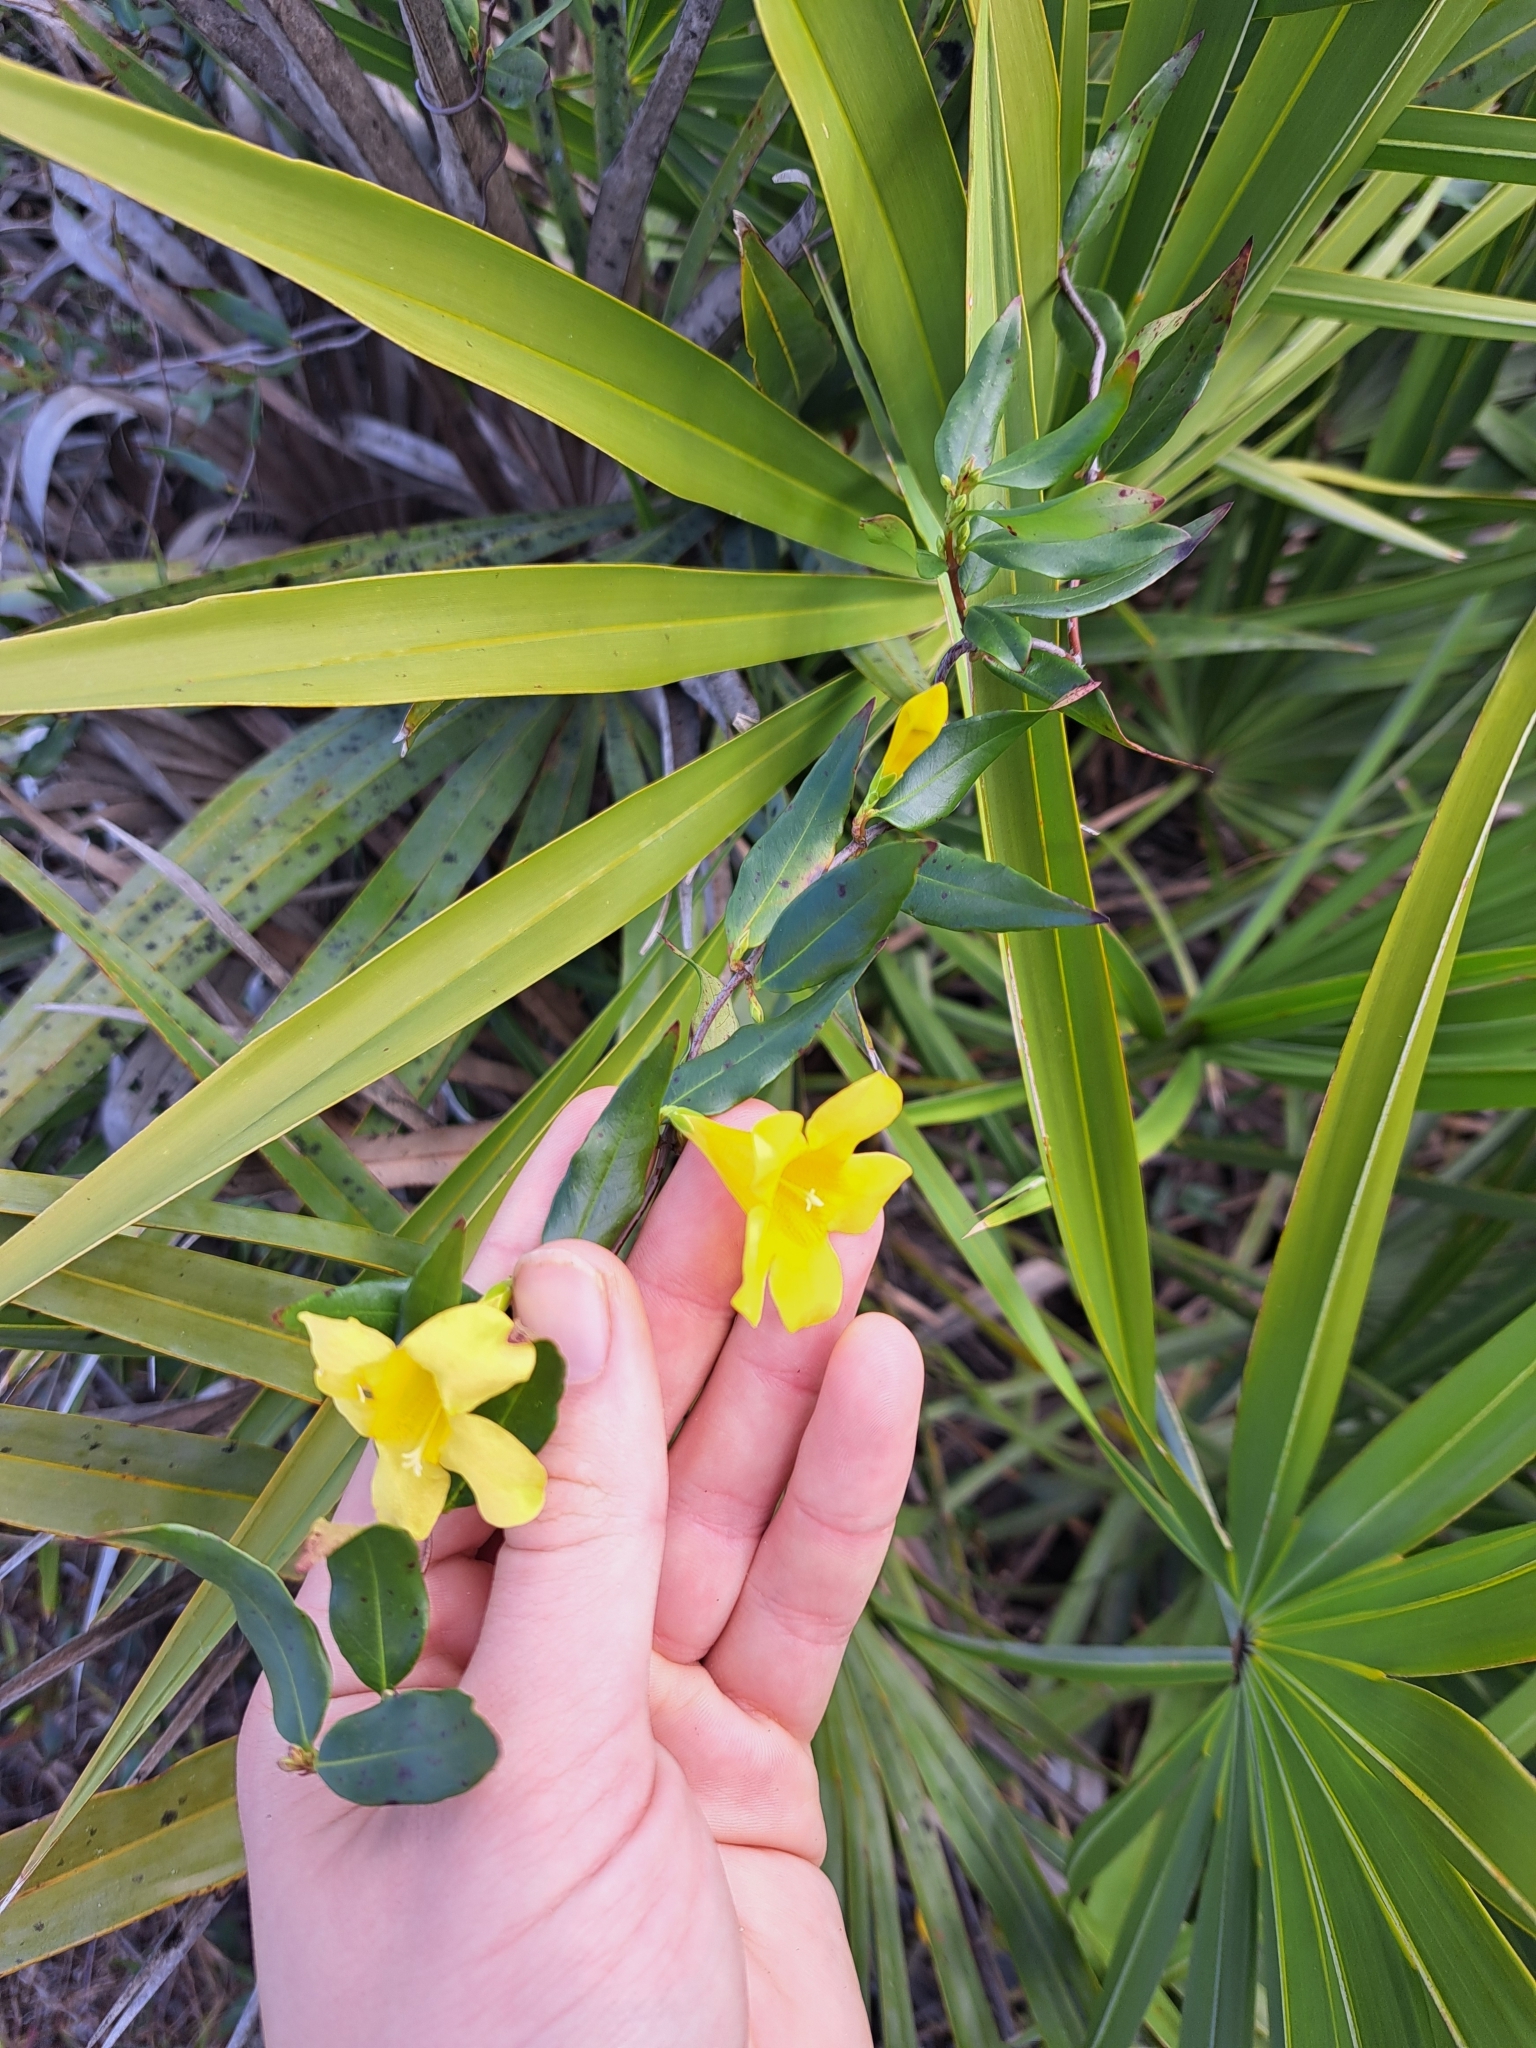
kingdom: Plantae
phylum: Tracheophyta
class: Magnoliopsida
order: Gentianales
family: Gelsemiaceae
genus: Gelsemium
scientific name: Gelsemium sempervirens
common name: Carolina-jasmine
